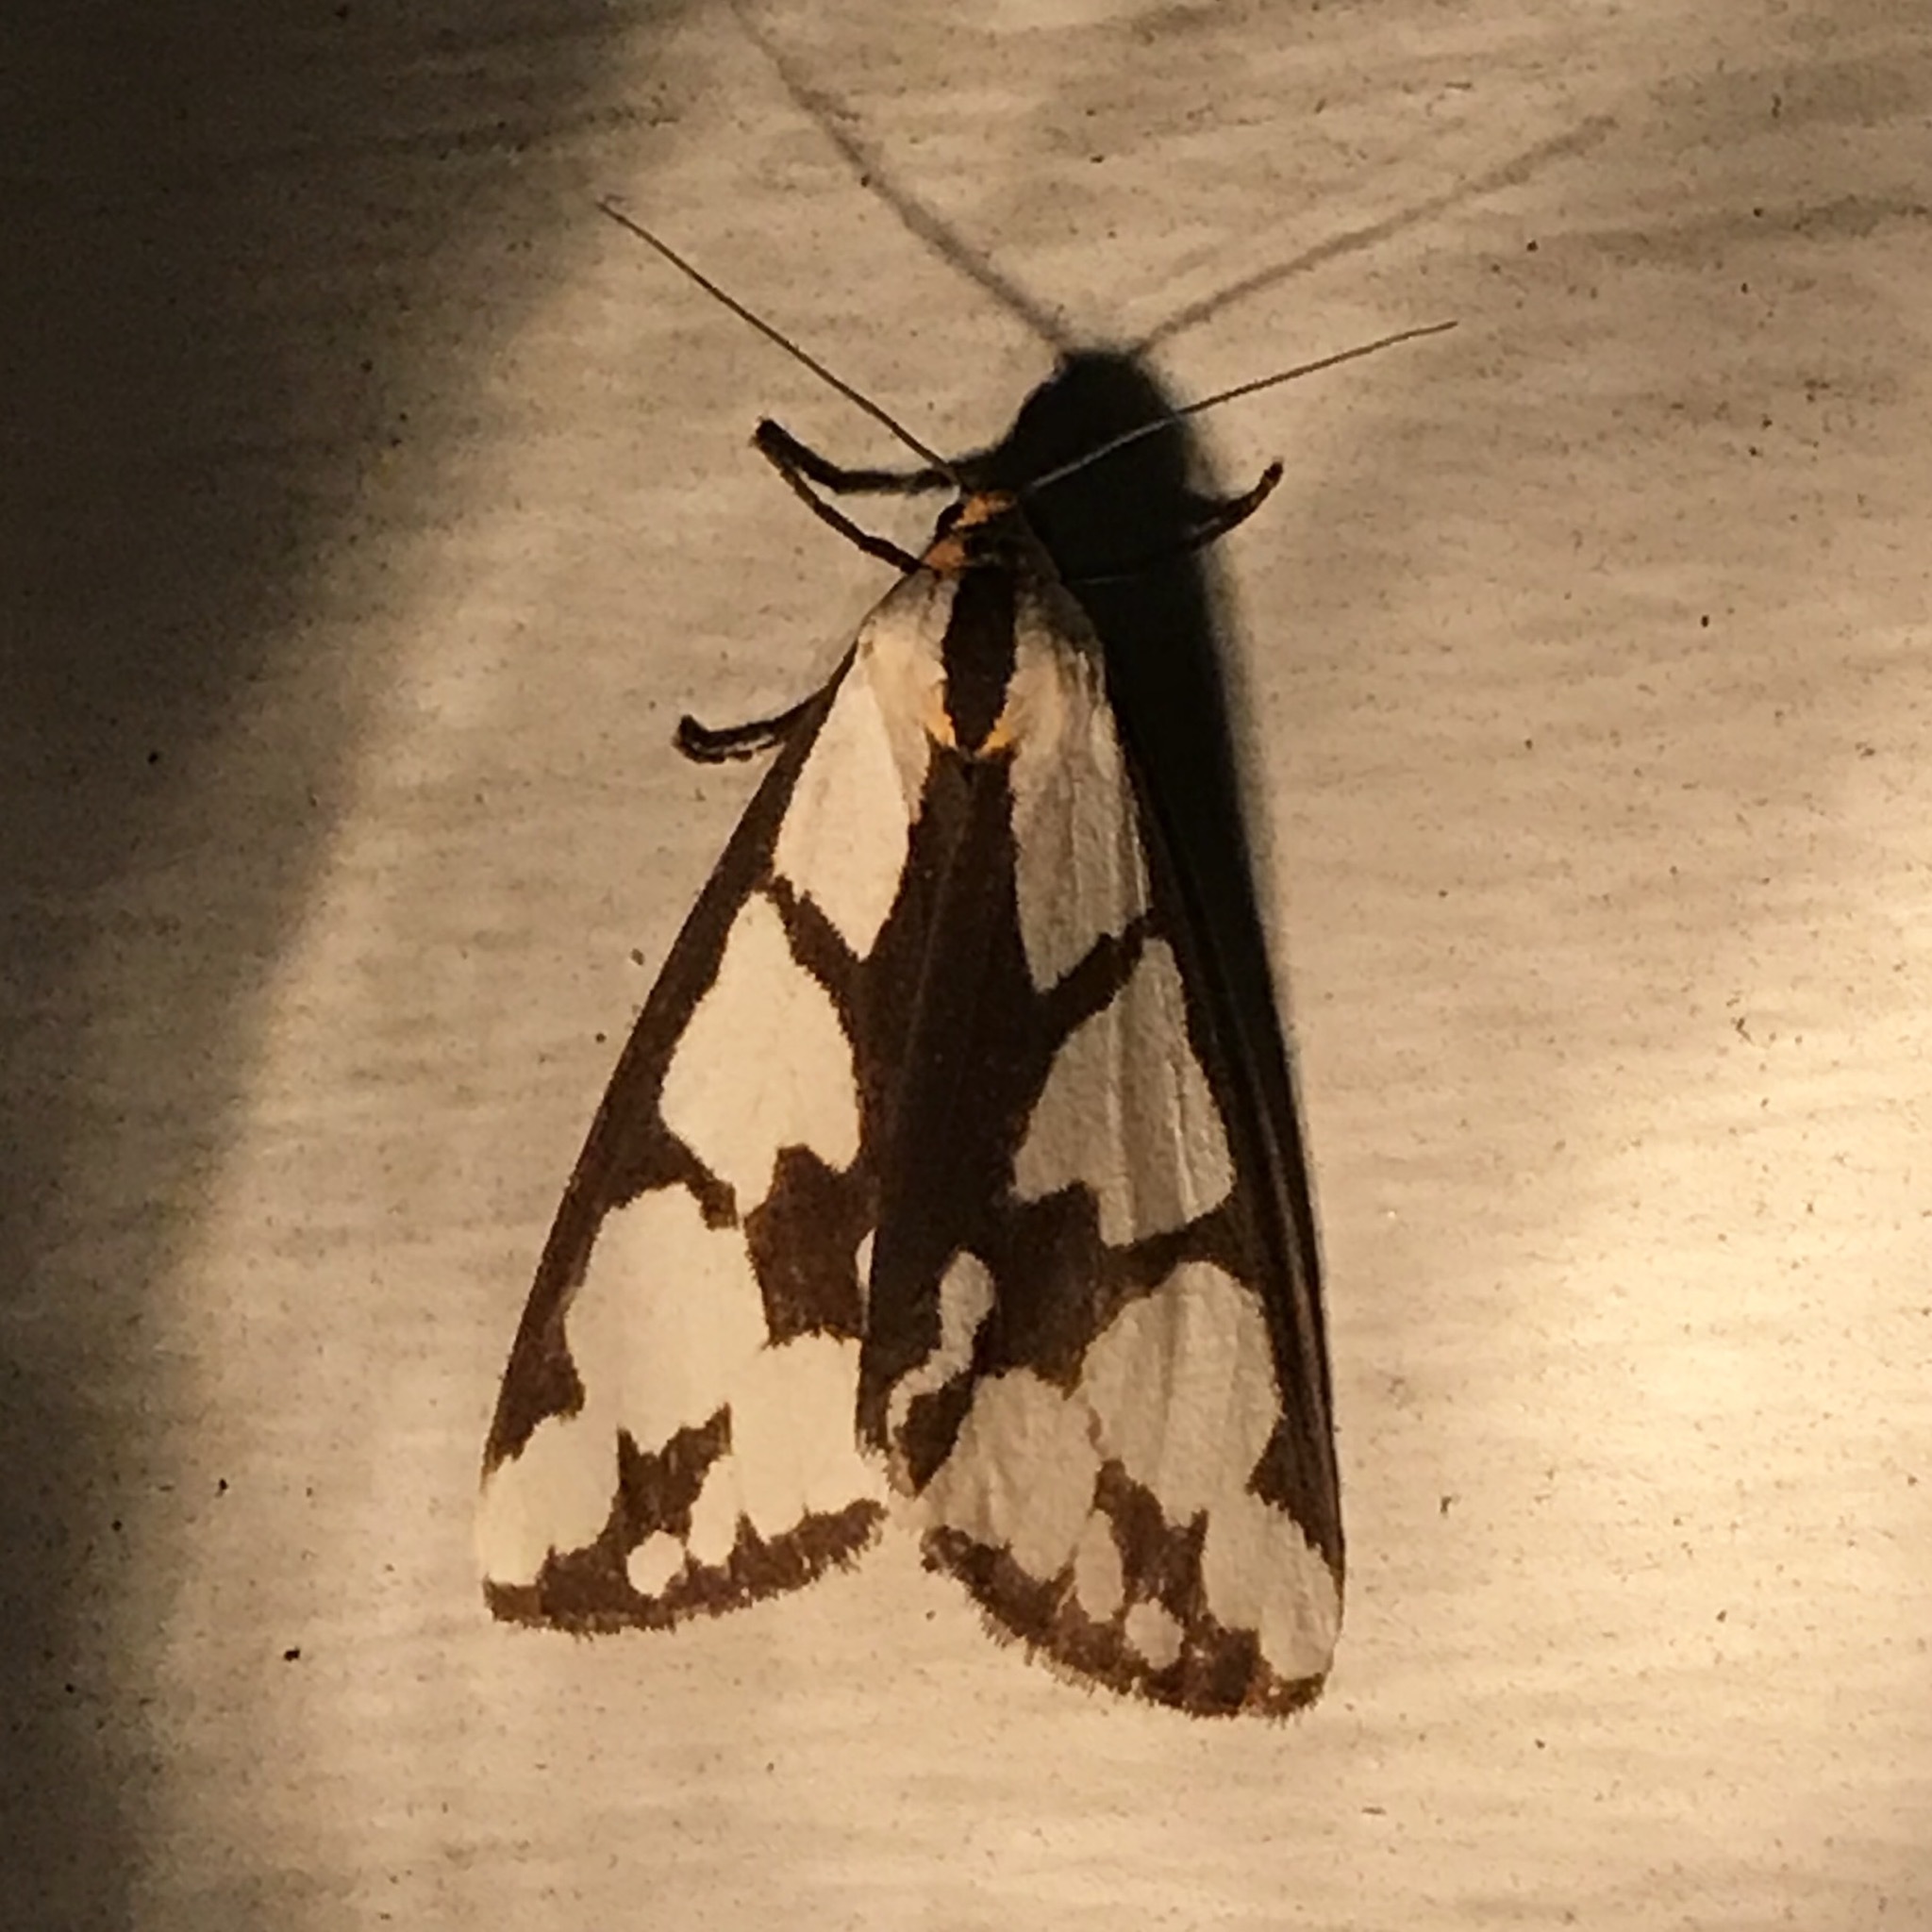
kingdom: Animalia
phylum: Arthropoda
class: Insecta
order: Lepidoptera
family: Erebidae
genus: Haploa
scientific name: Haploa confusa
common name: Confused haploa moth
